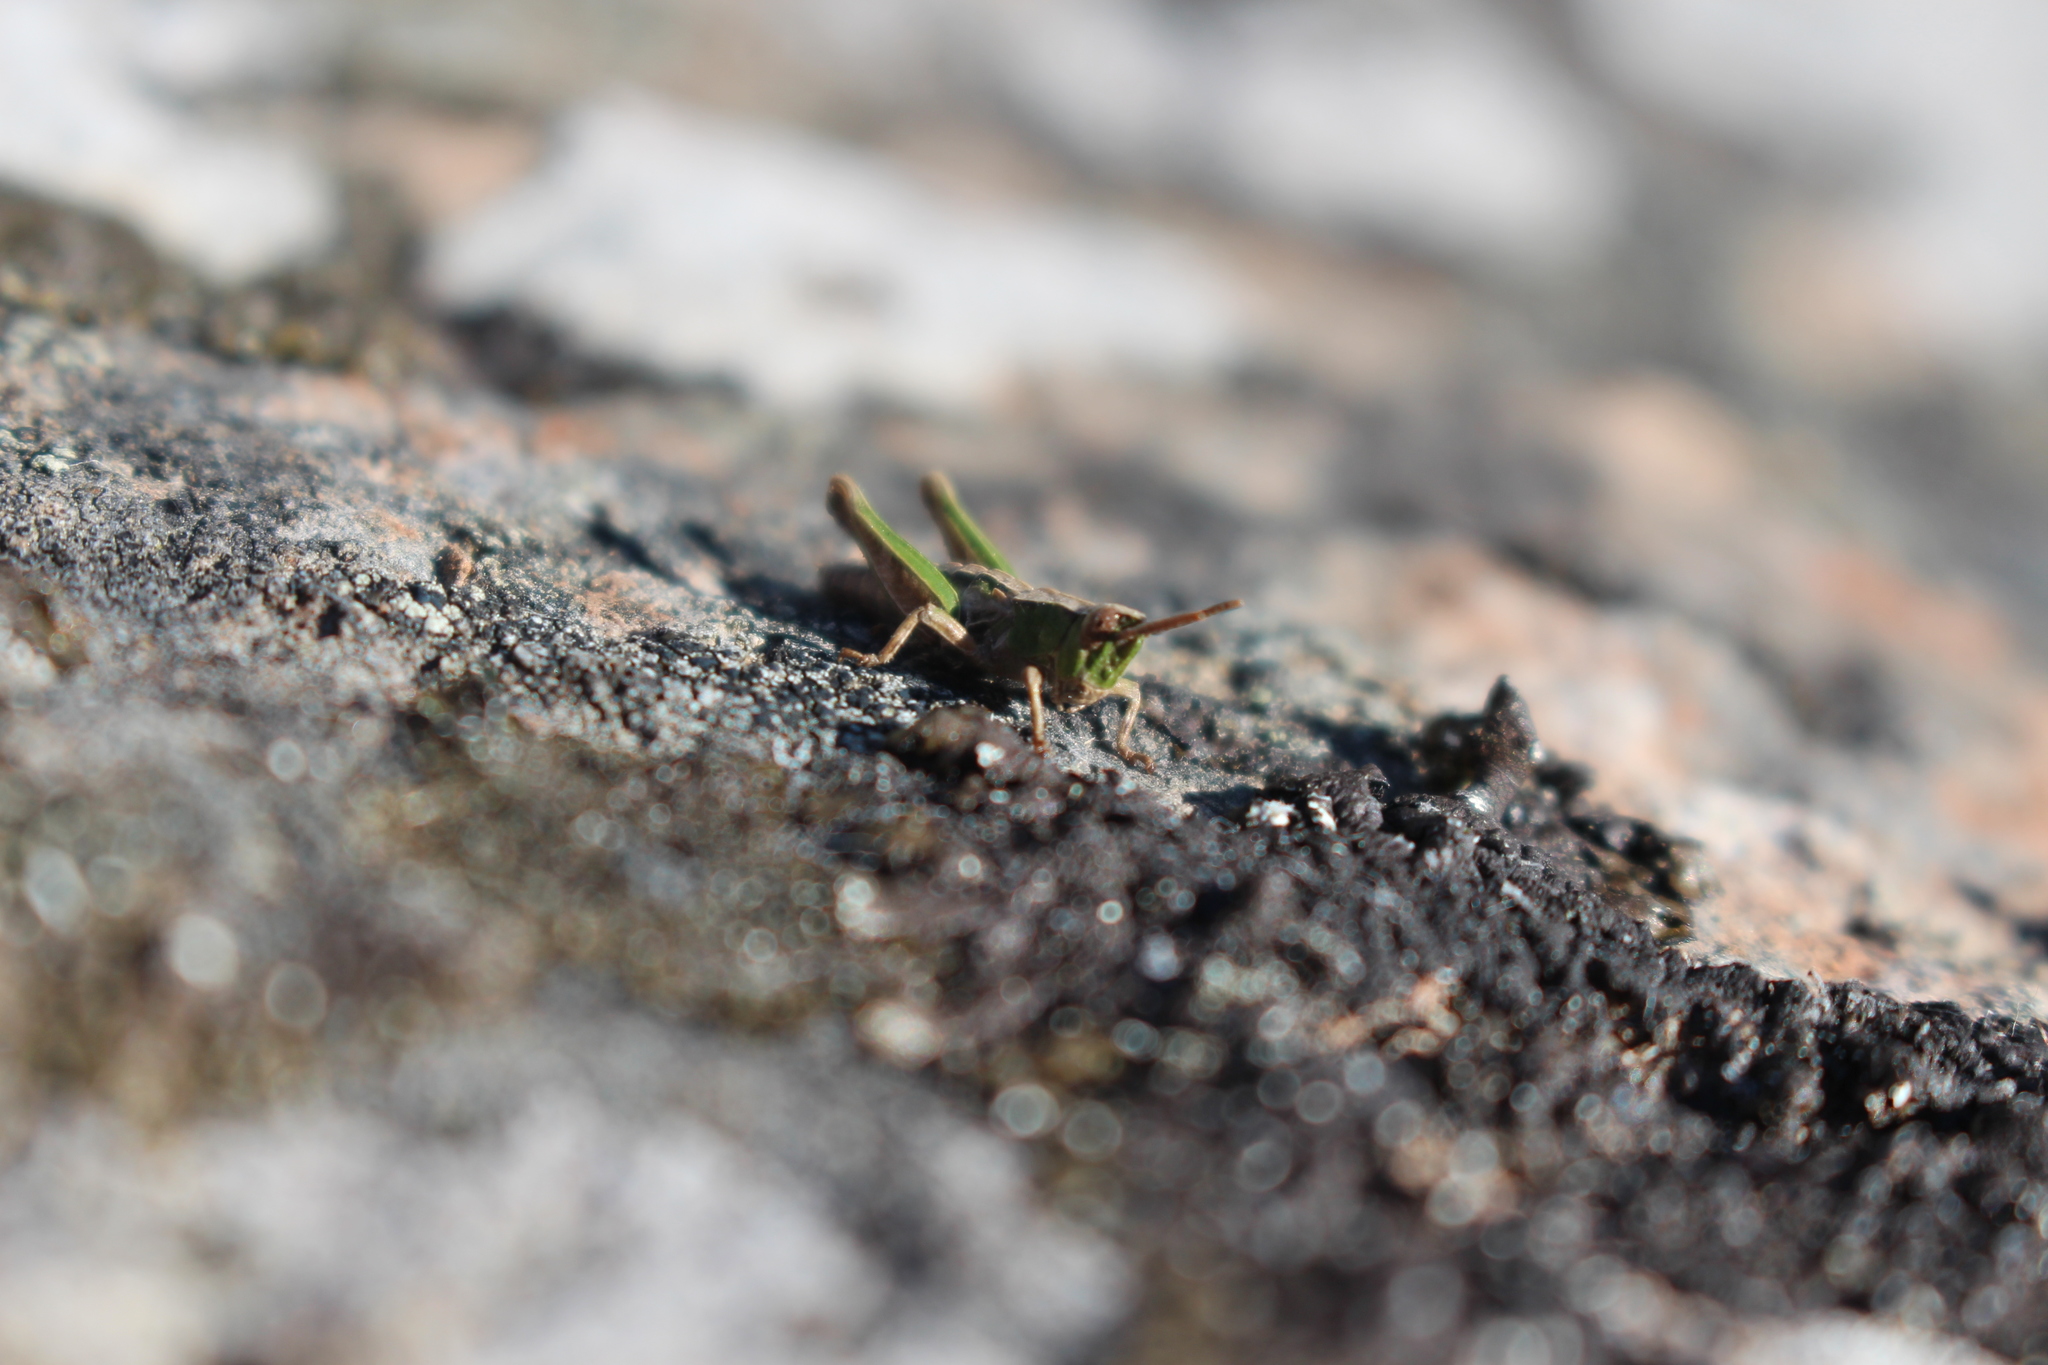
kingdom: Animalia
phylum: Arthropoda
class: Insecta
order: Orthoptera
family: Acrididae
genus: Sigaus
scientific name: Sigaus campestris
